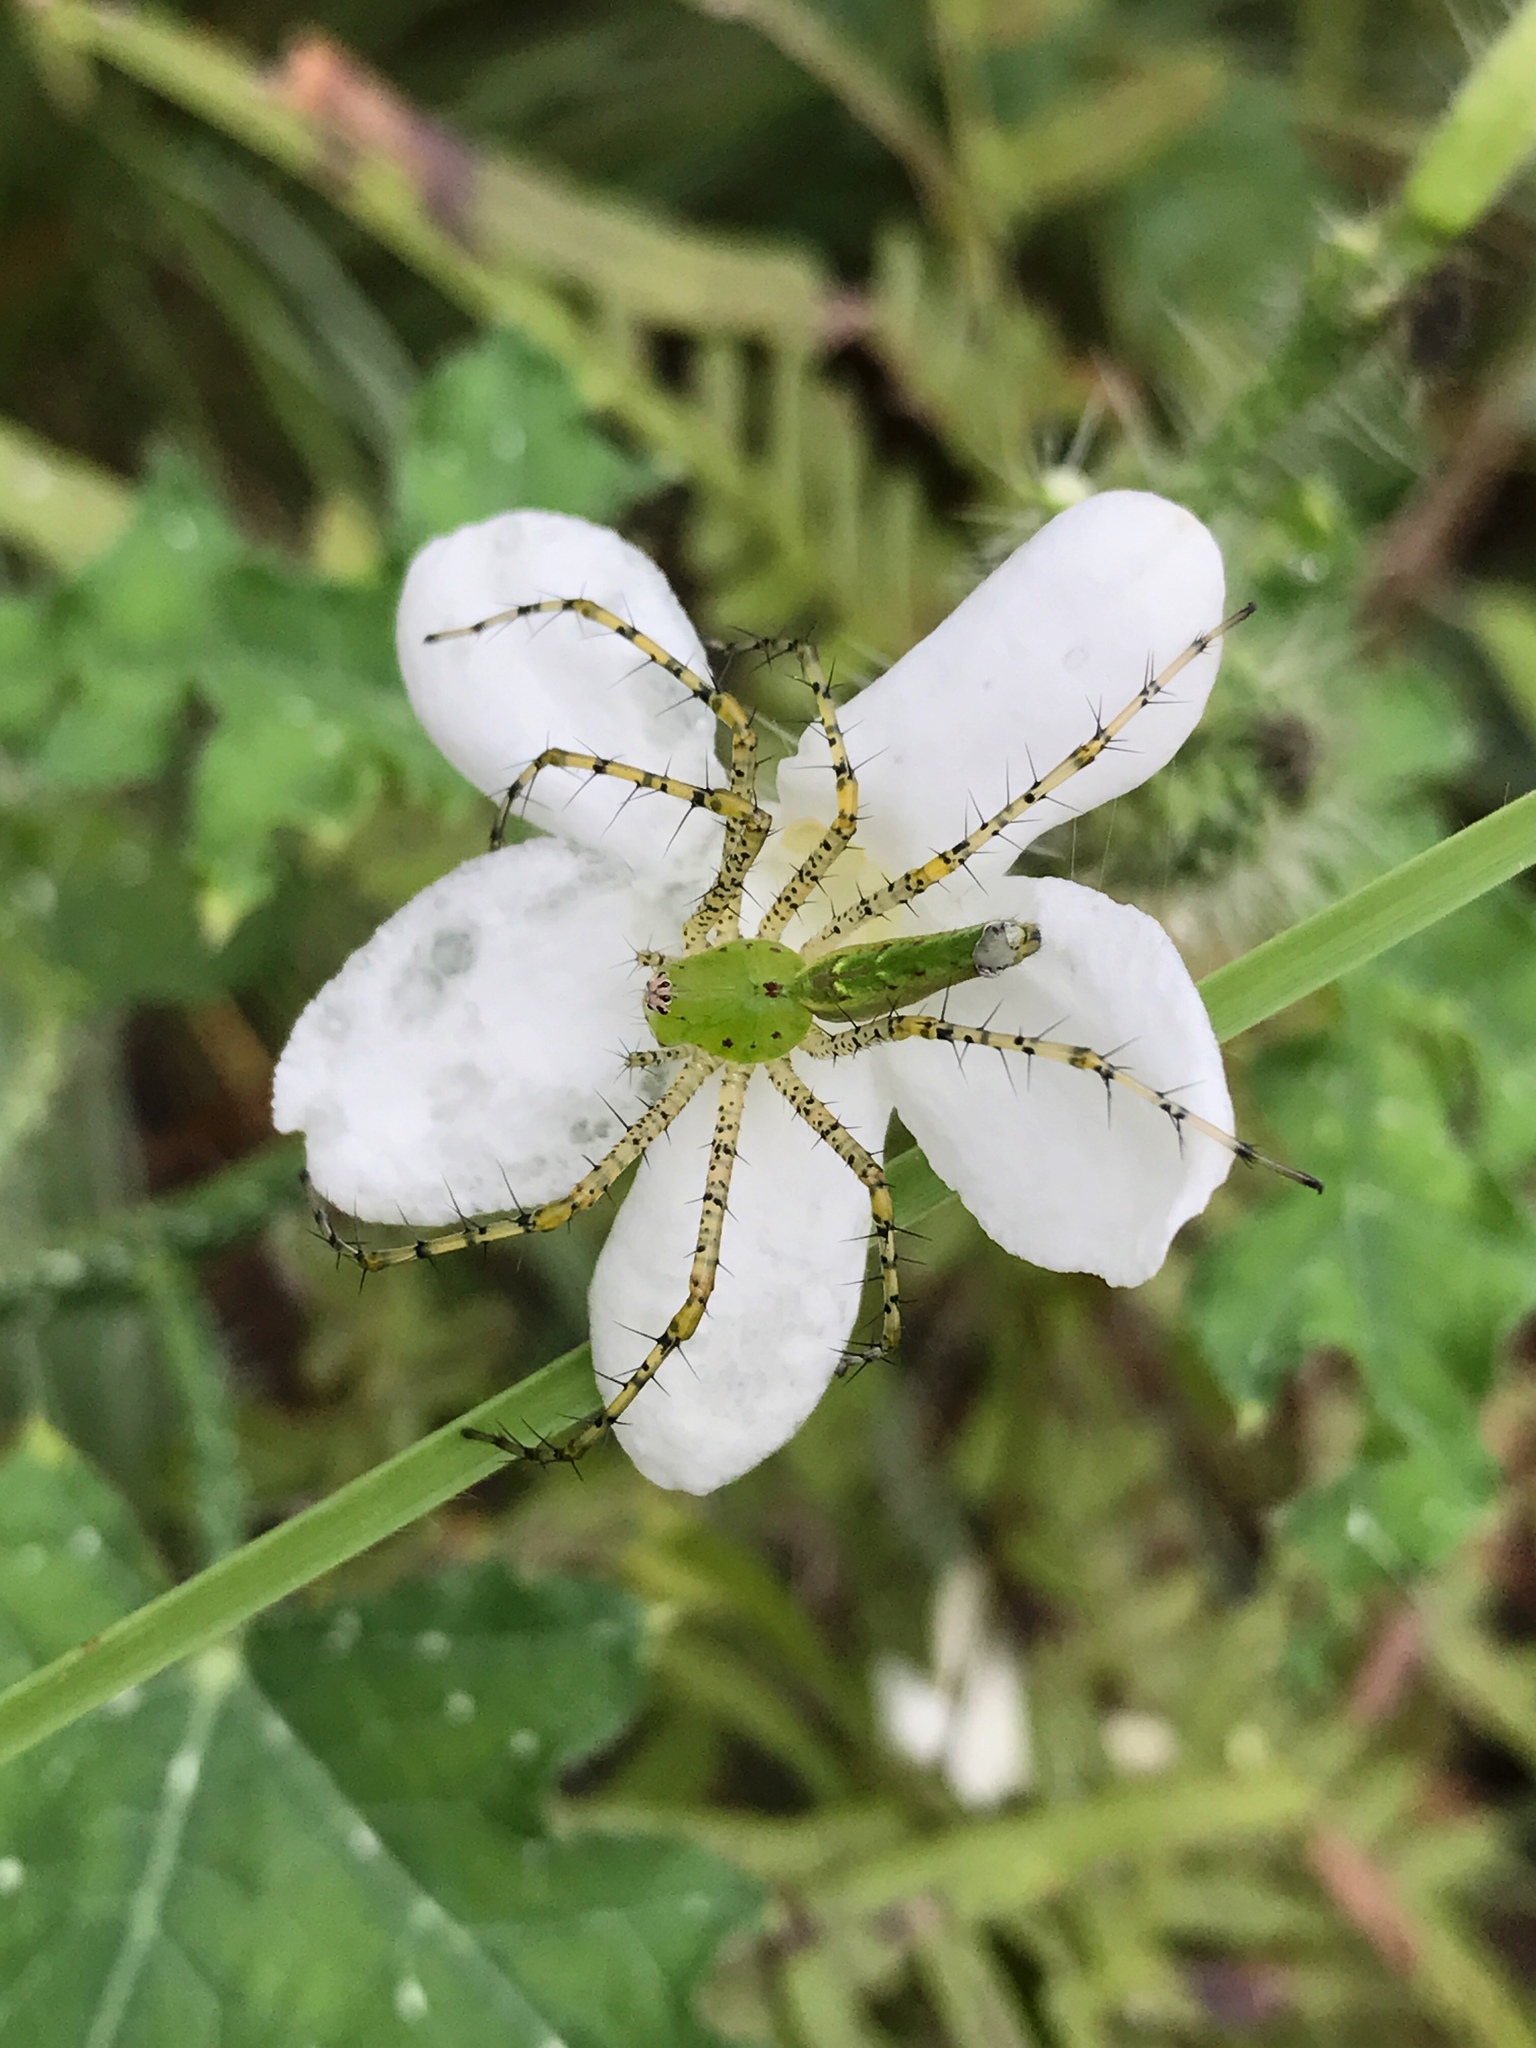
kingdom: Animalia
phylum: Arthropoda
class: Arachnida
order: Araneae
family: Oxyopidae
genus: Peucetia
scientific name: Peucetia viridans
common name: Lynx spiders
